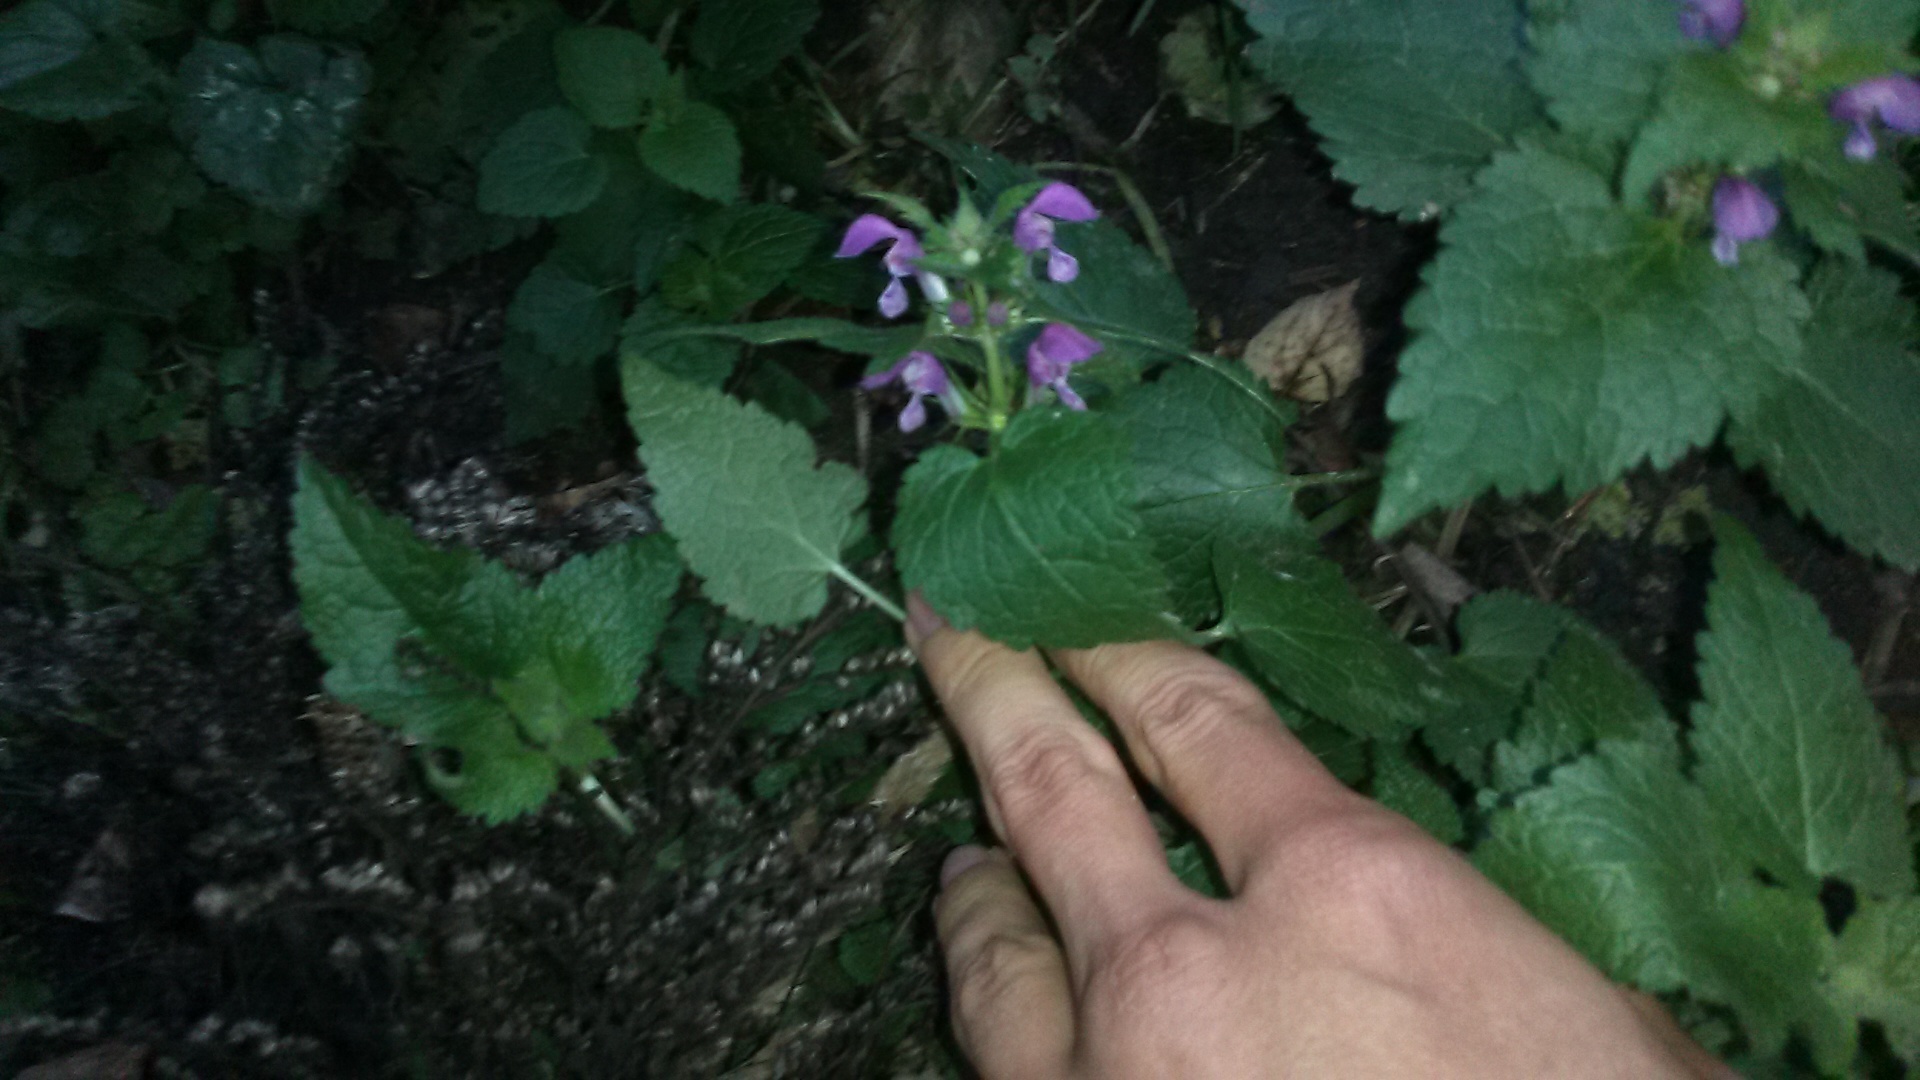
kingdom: Plantae
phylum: Tracheophyta
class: Magnoliopsida
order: Lamiales
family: Lamiaceae
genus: Lamium
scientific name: Lamium maculatum
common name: Spotted dead-nettle
